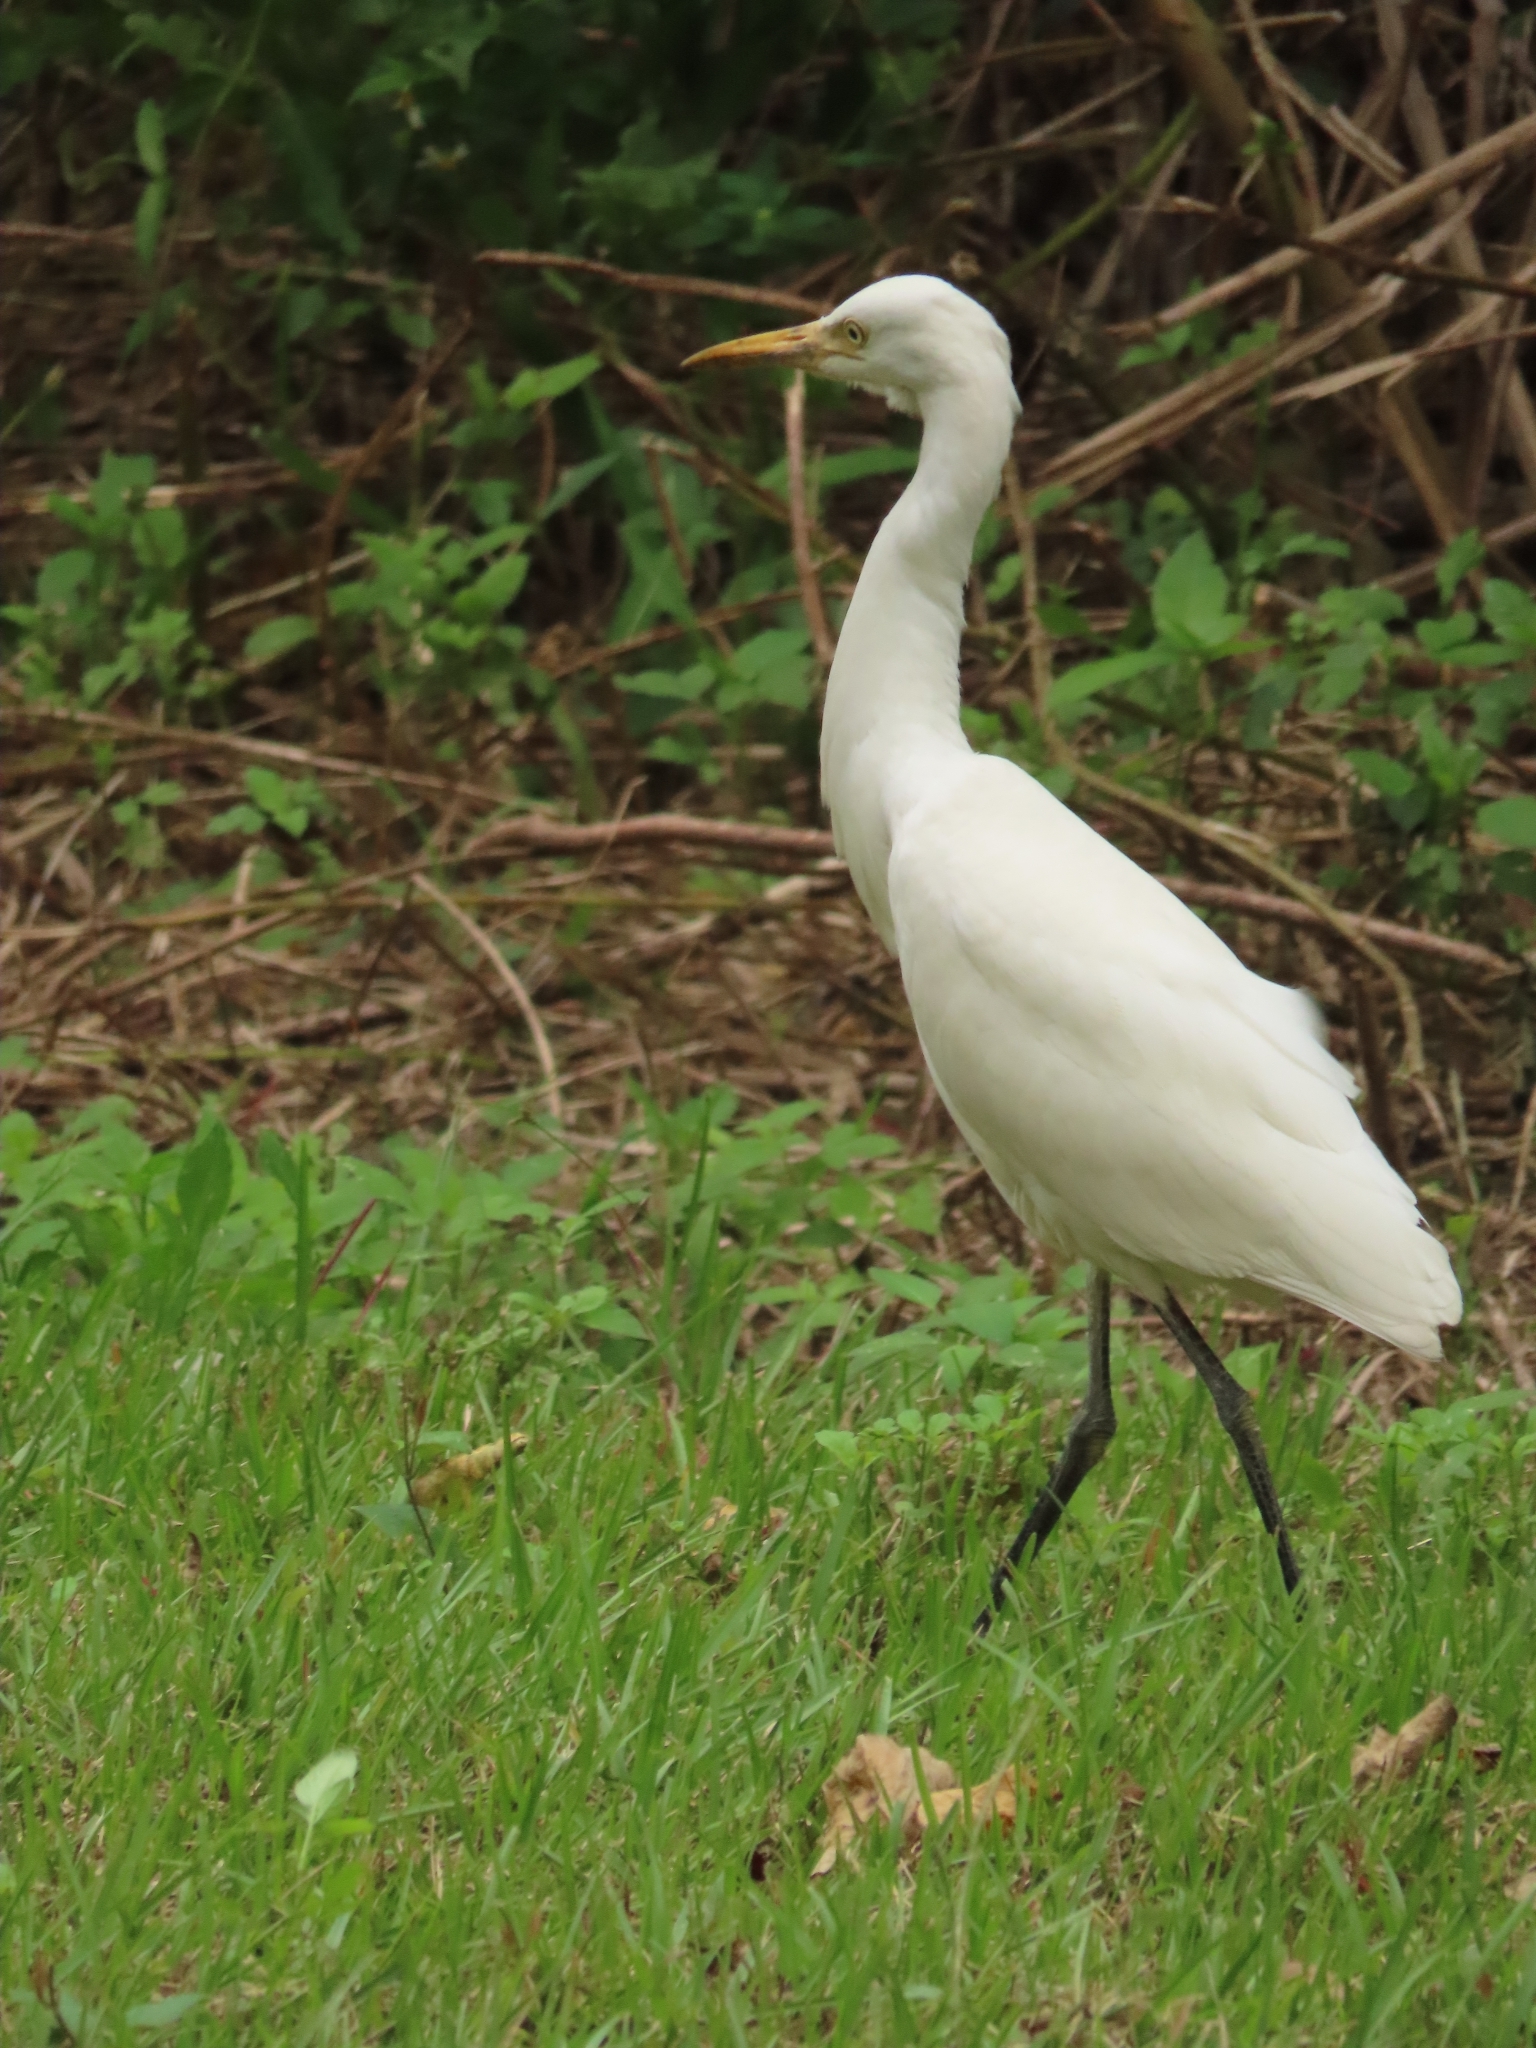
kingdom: Animalia
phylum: Chordata
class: Aves
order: Pelecaniformes
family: Ardeidae
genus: Bubulcus
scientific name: Bubulcus coromandus
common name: Eastern cattle egret
